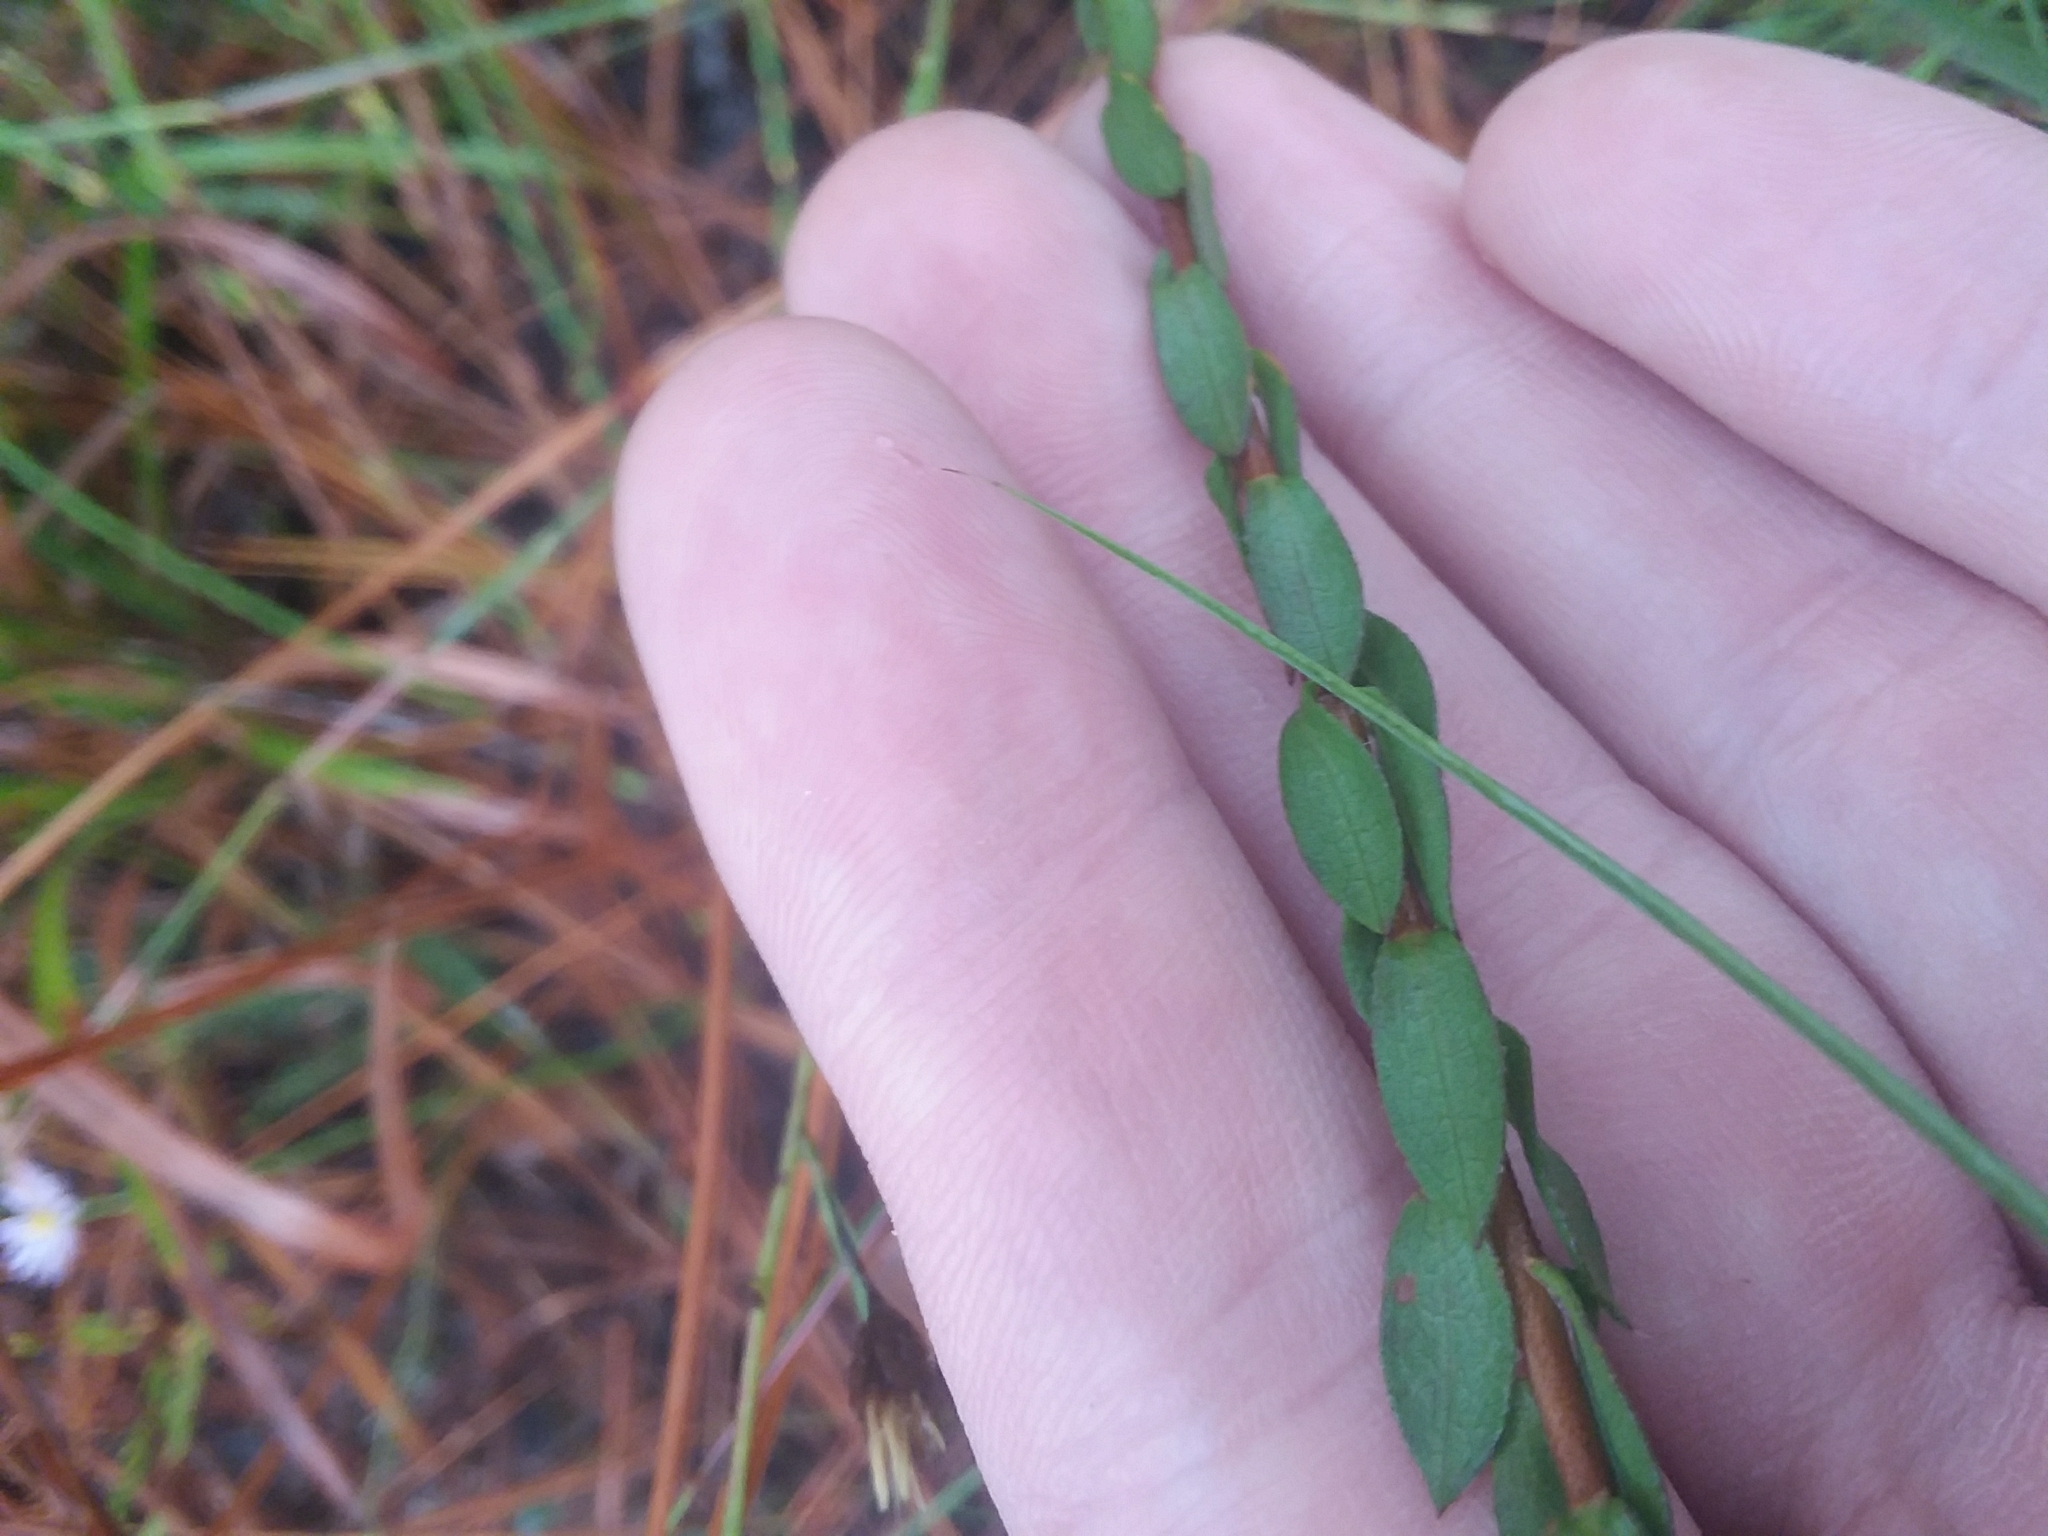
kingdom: Plantae
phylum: Tracheophyta
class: Magnoliopsida
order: Asterales
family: Asteraceae
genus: Symphyotrichum
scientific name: Symphyotrichum concolor
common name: Eastern silver aster
